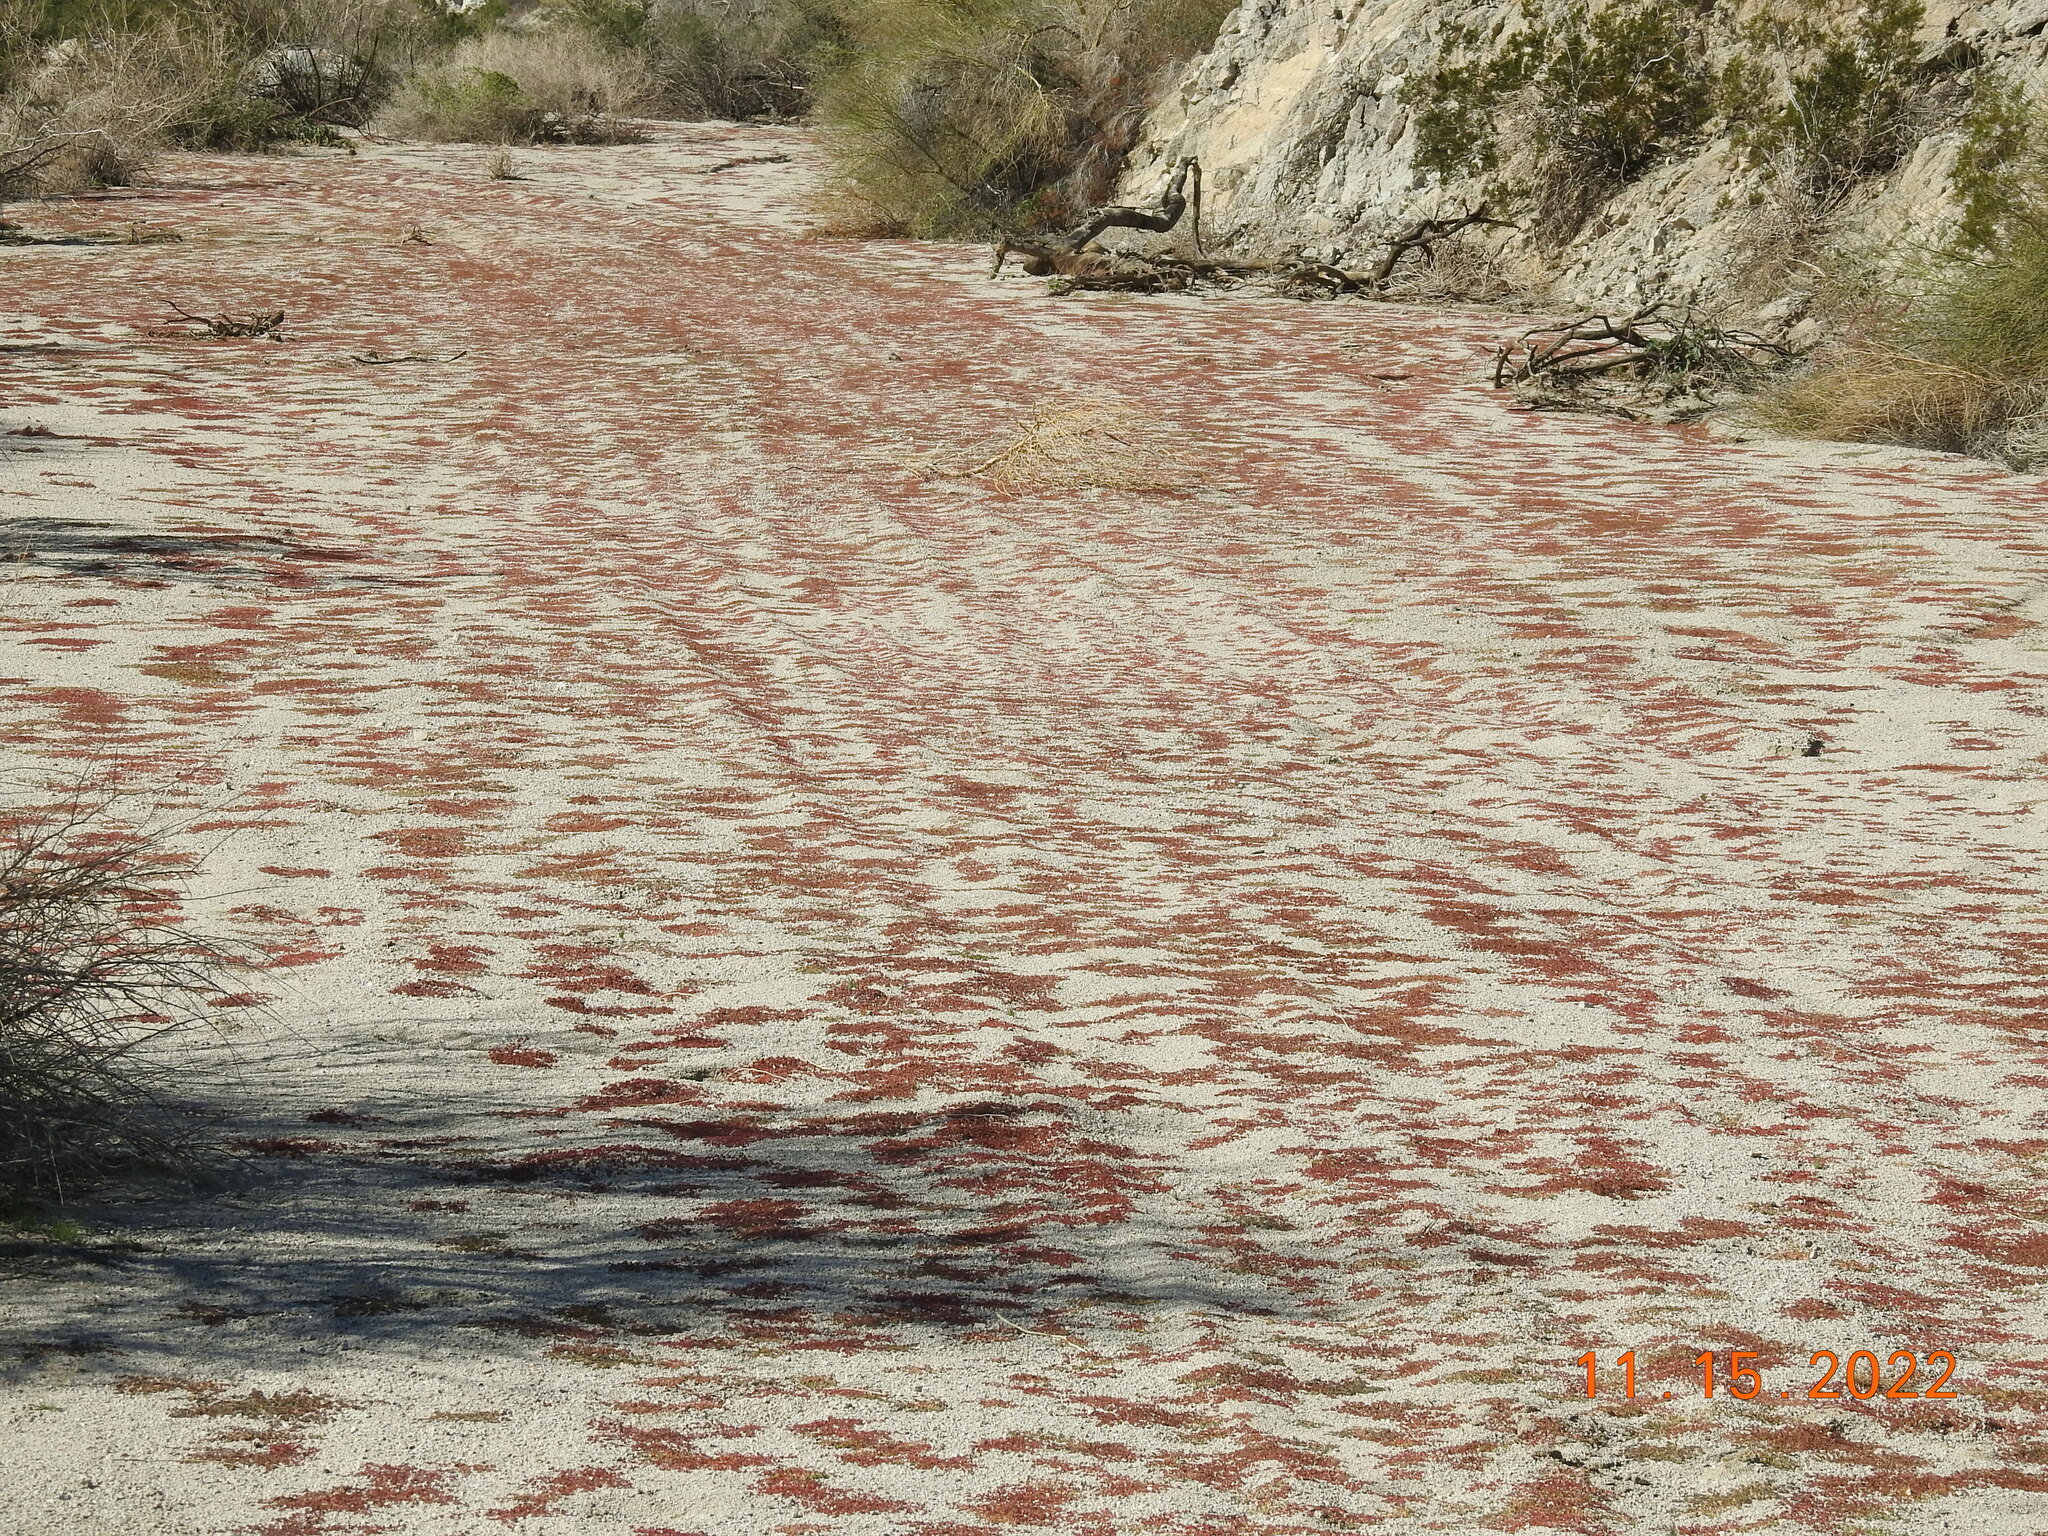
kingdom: Plantae
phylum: Tracheophyta
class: Magnoliopsida
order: Malpighiales
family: Euphorbiaceae
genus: Euphorbia
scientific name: Euphorbia micromera
